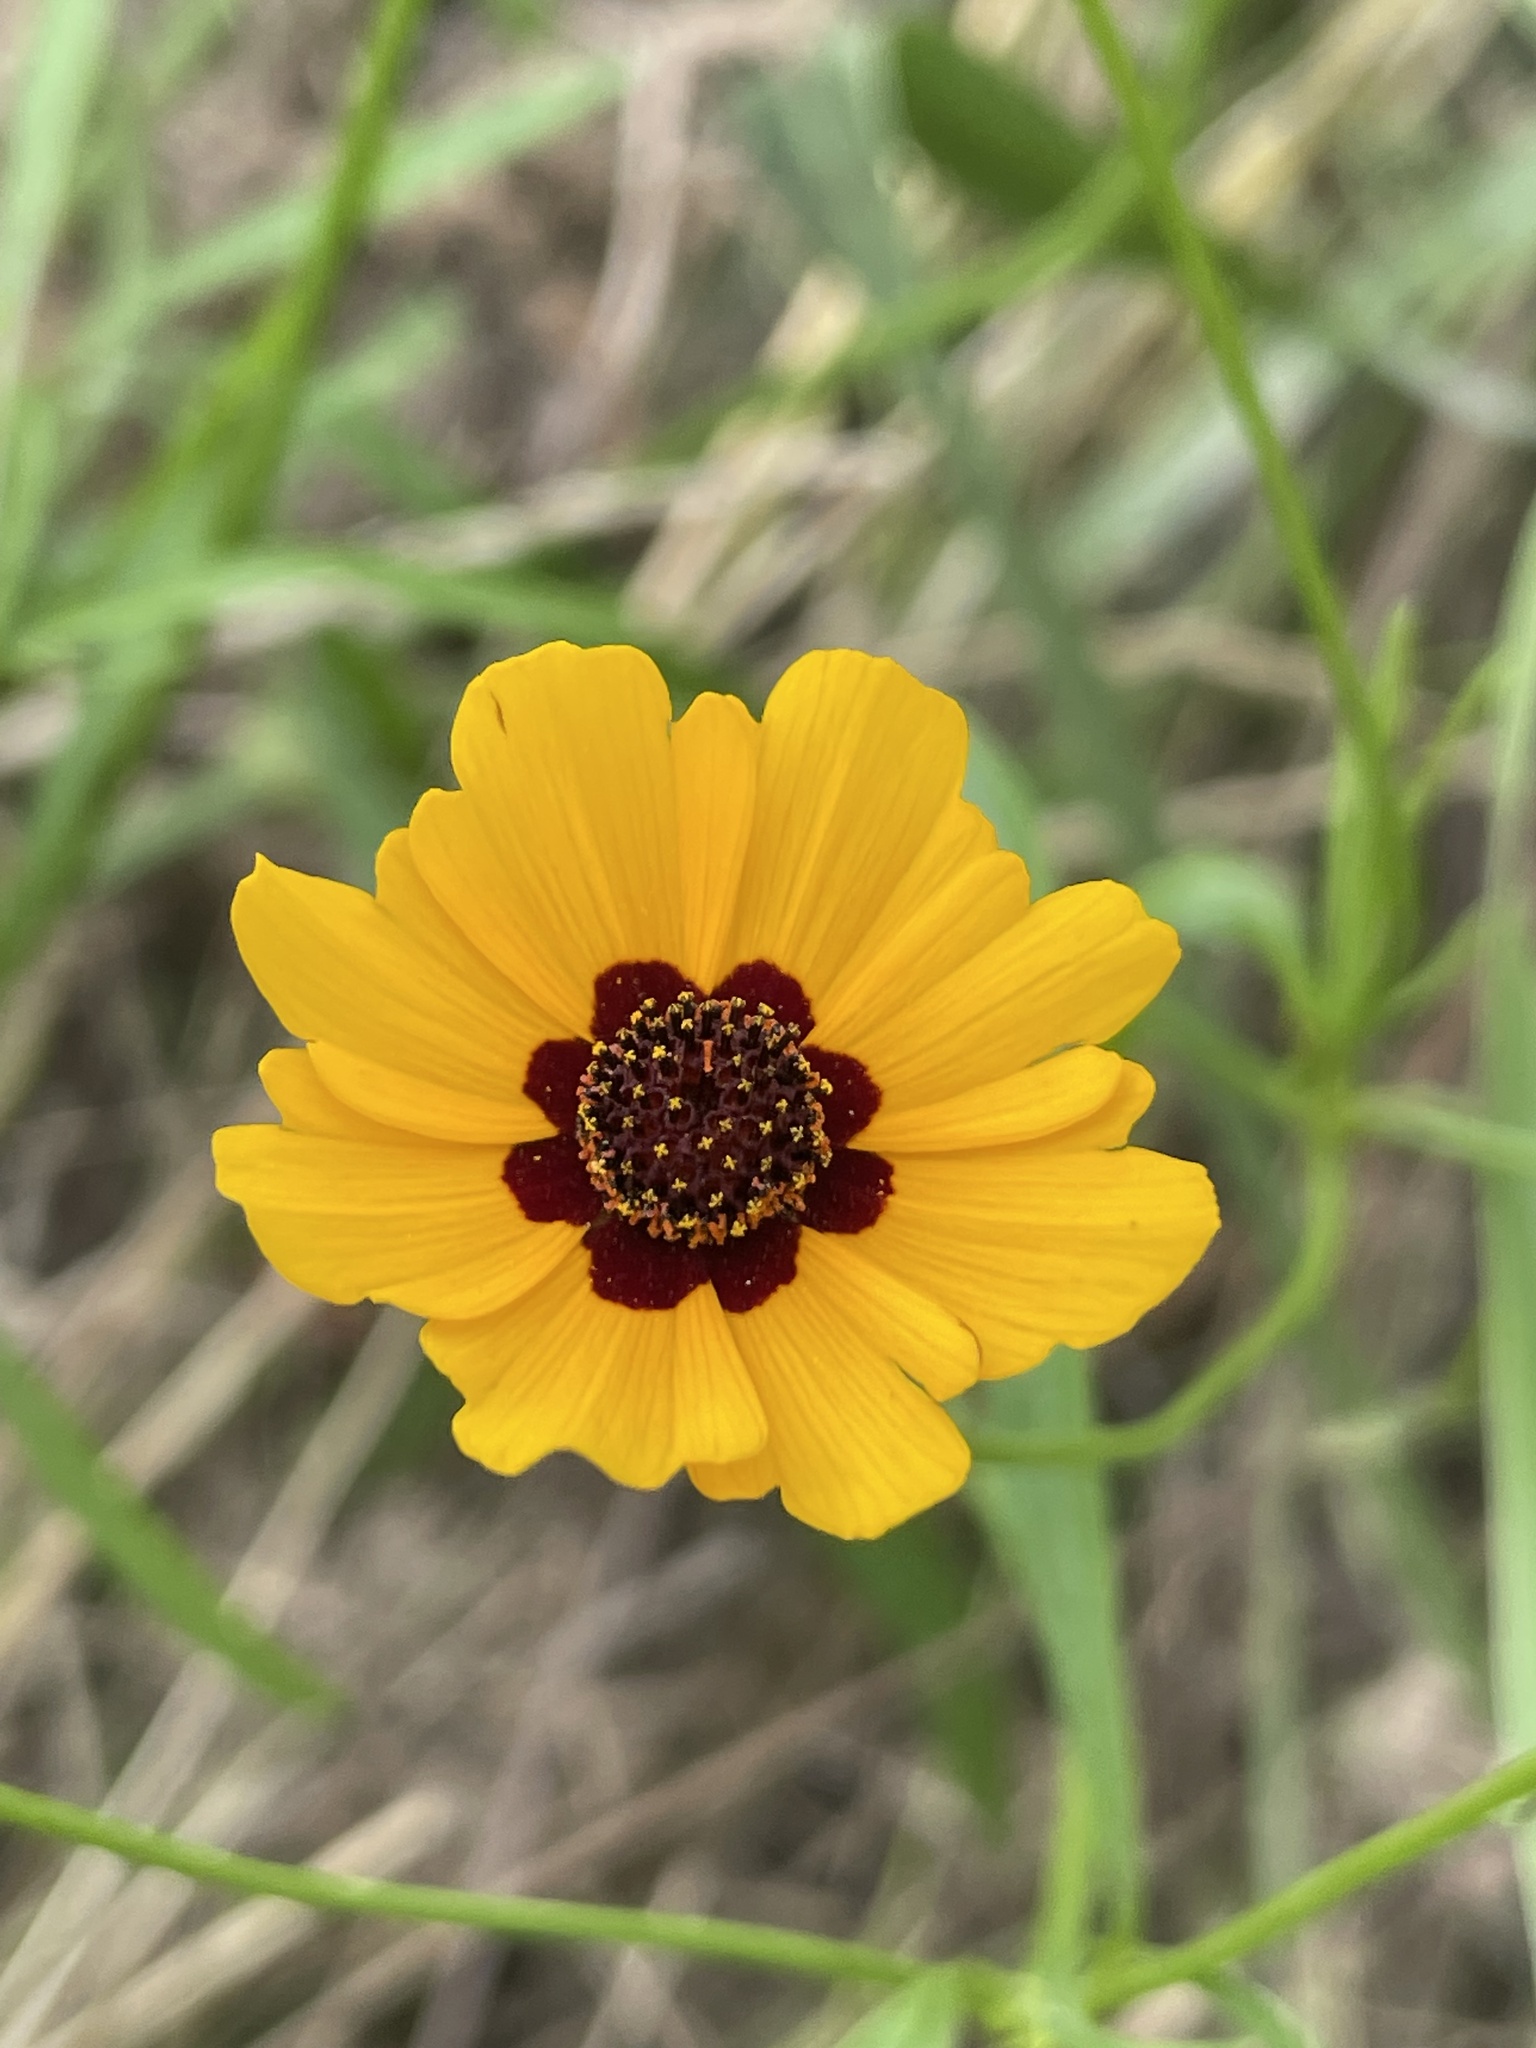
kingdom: Plantae
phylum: Tracheophyta
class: Magnoliopsida
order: Asterales
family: Asteraceae
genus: Coreopsis
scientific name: Coreopsis
